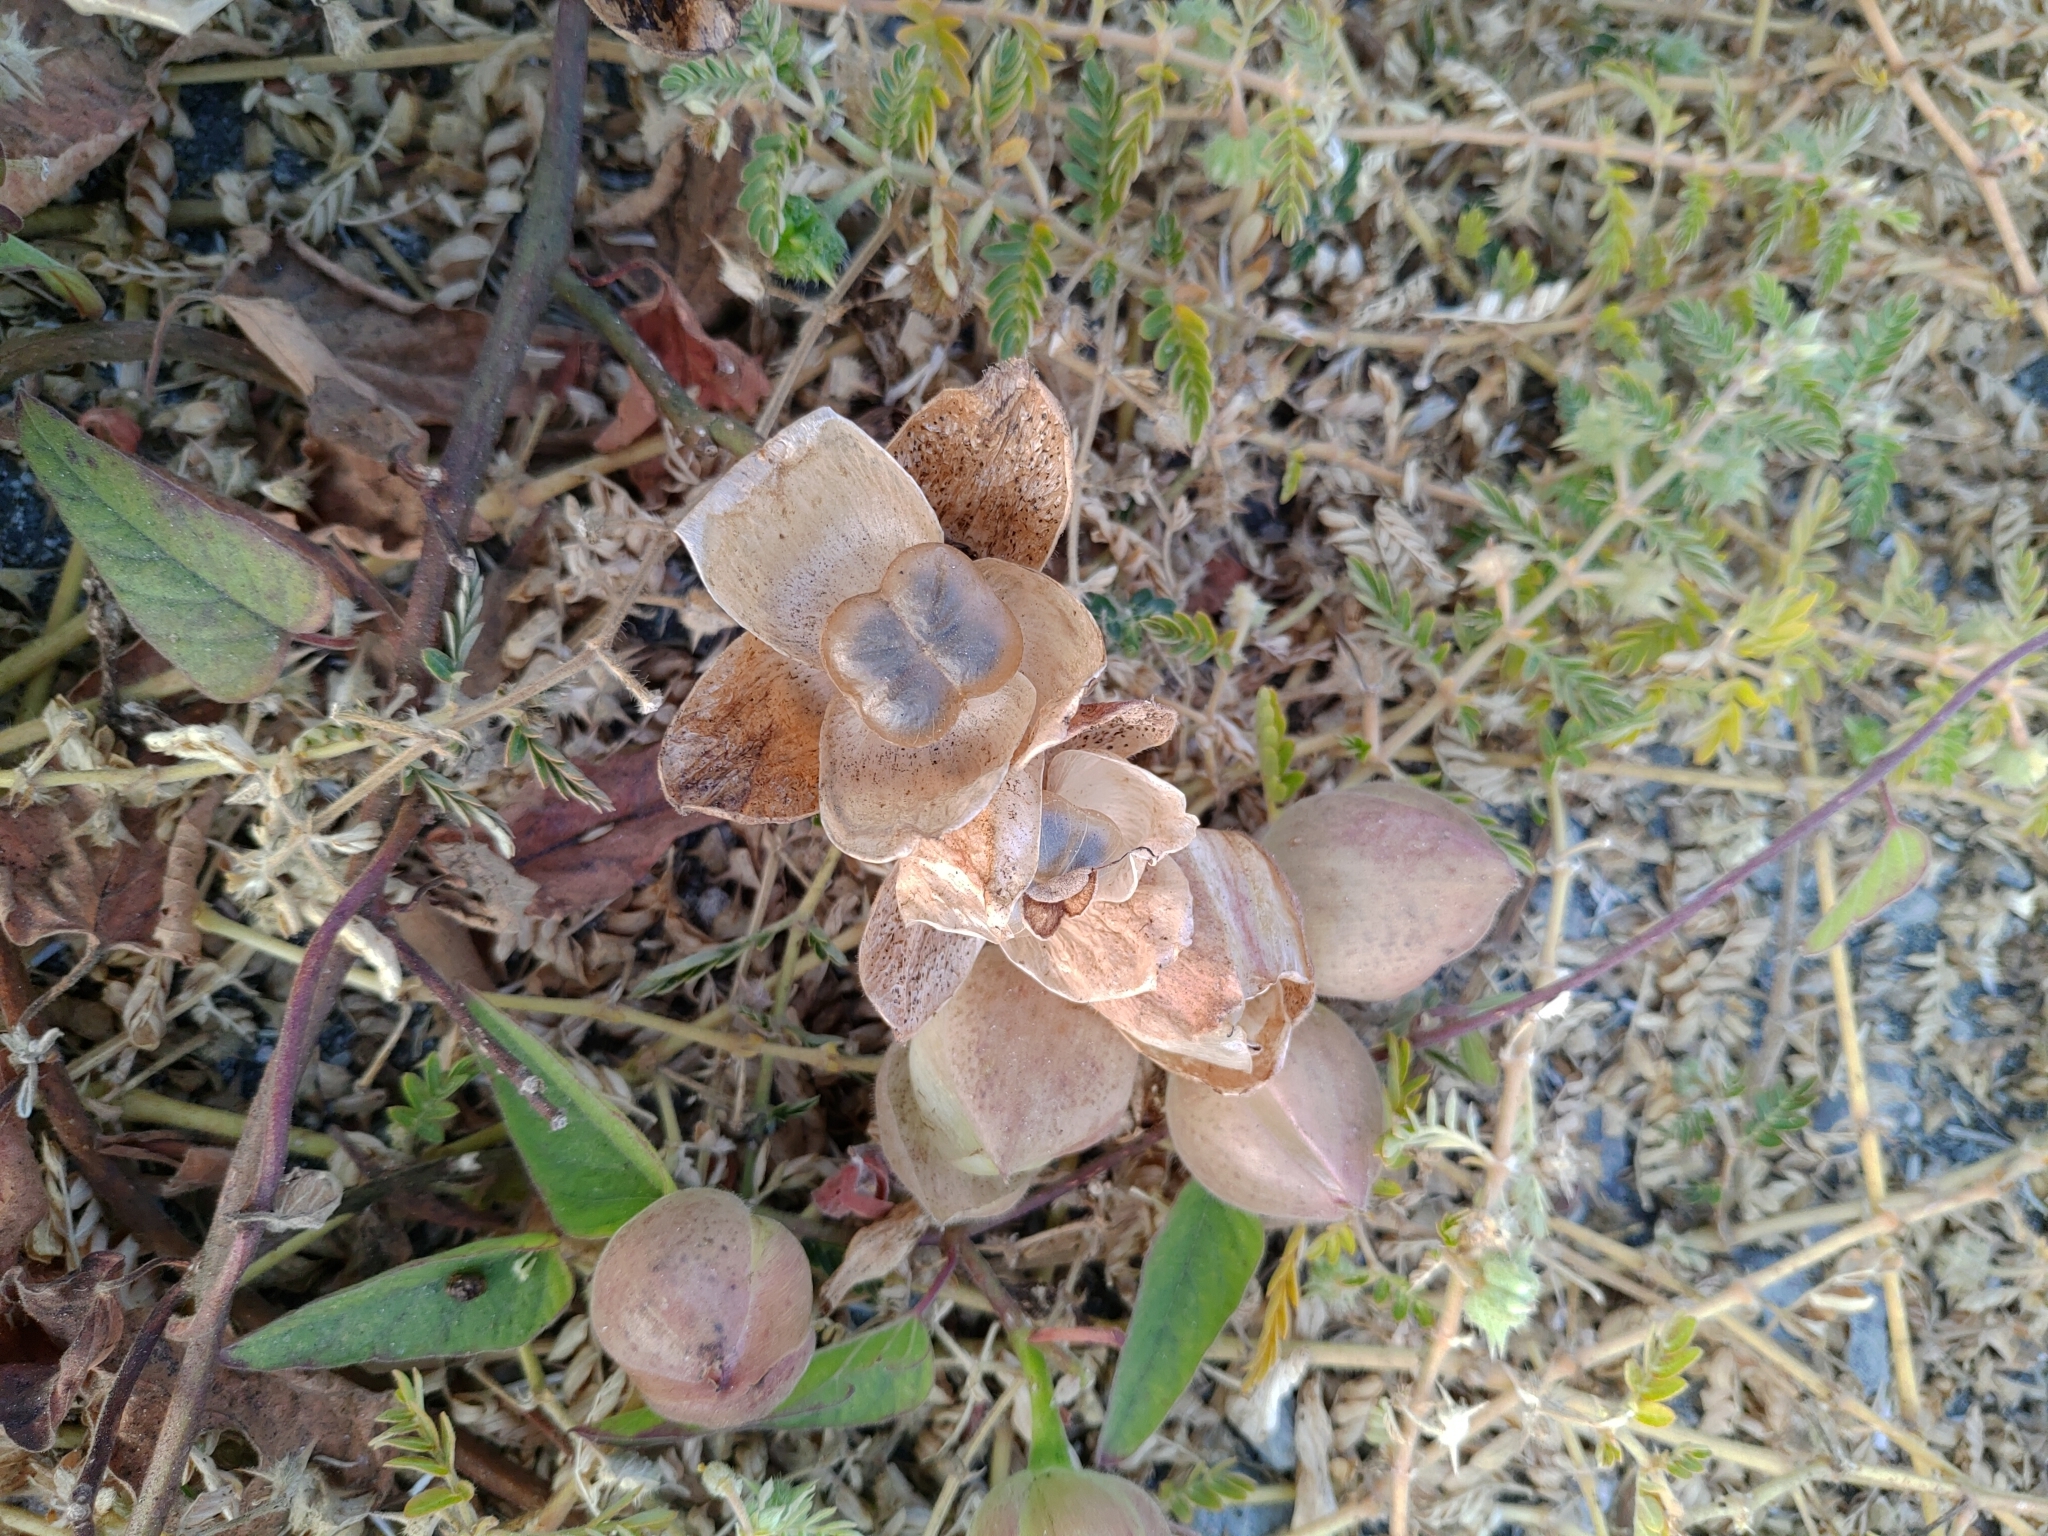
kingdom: Plantae
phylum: Tracheophyta
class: Magnoliopsida
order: Solanales
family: Convolvulaceae
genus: Operculina
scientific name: Operculina turpethum
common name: Transparent wood-rose
